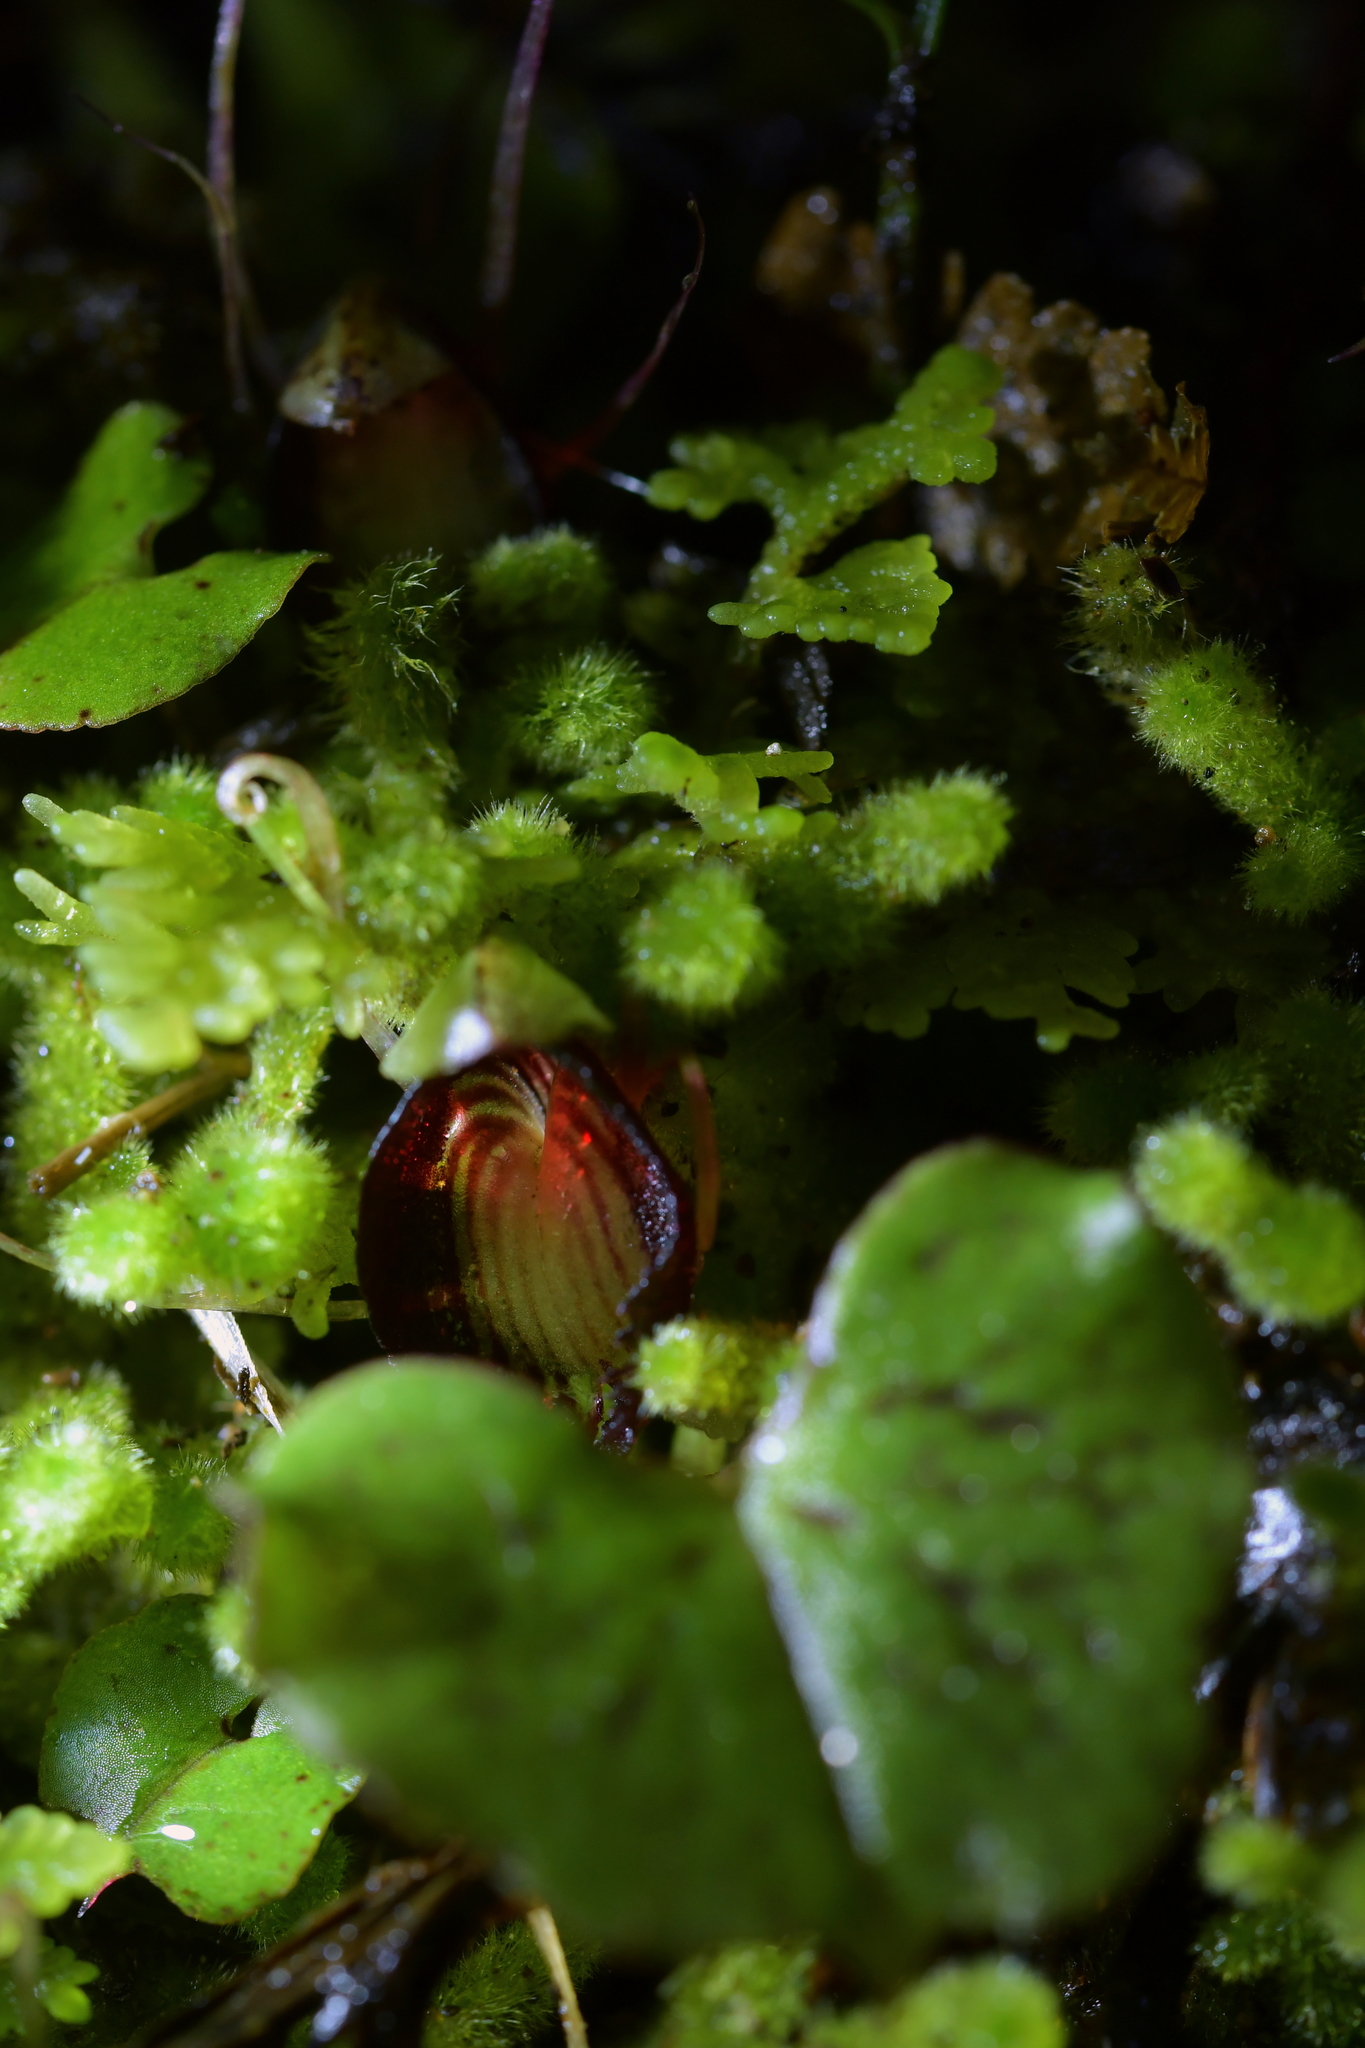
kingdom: Plantae
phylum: Tracheophyta
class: Liliopsida
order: Asparagales
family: Orchidaceae
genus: Corybas
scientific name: Corybas sanctigeorgianus
